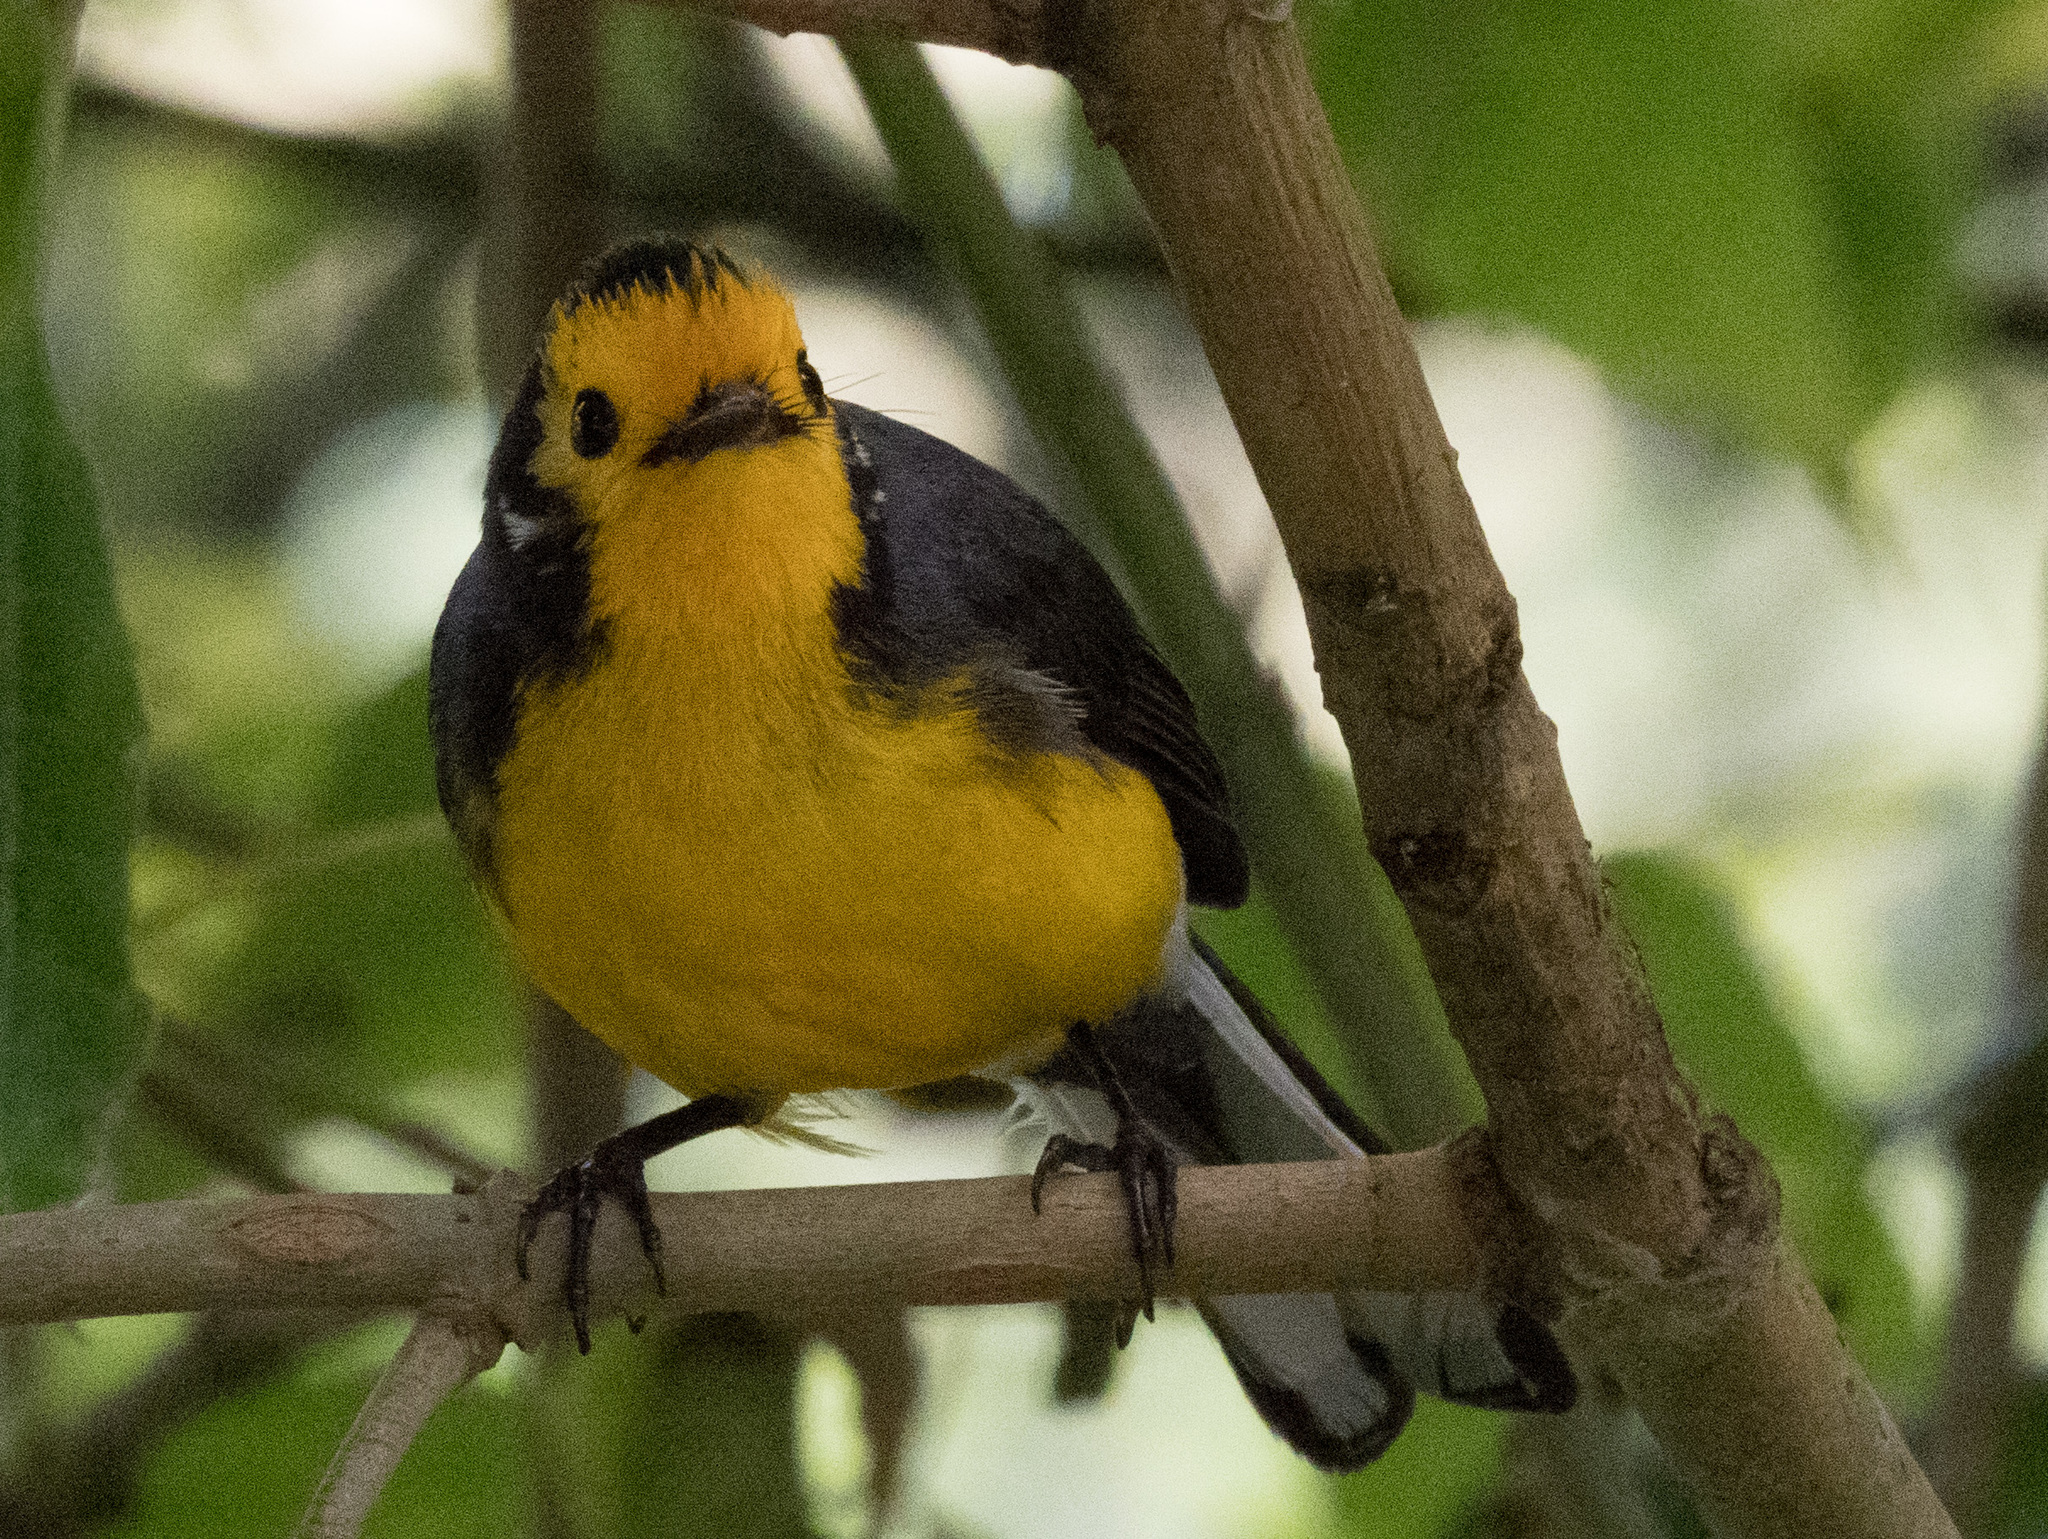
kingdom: Animalia
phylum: Chordata
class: Aves
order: Passeriformes
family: Parulidae
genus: Myioborus
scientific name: Myioborus ornatus
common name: Golden-fronted whitestart
